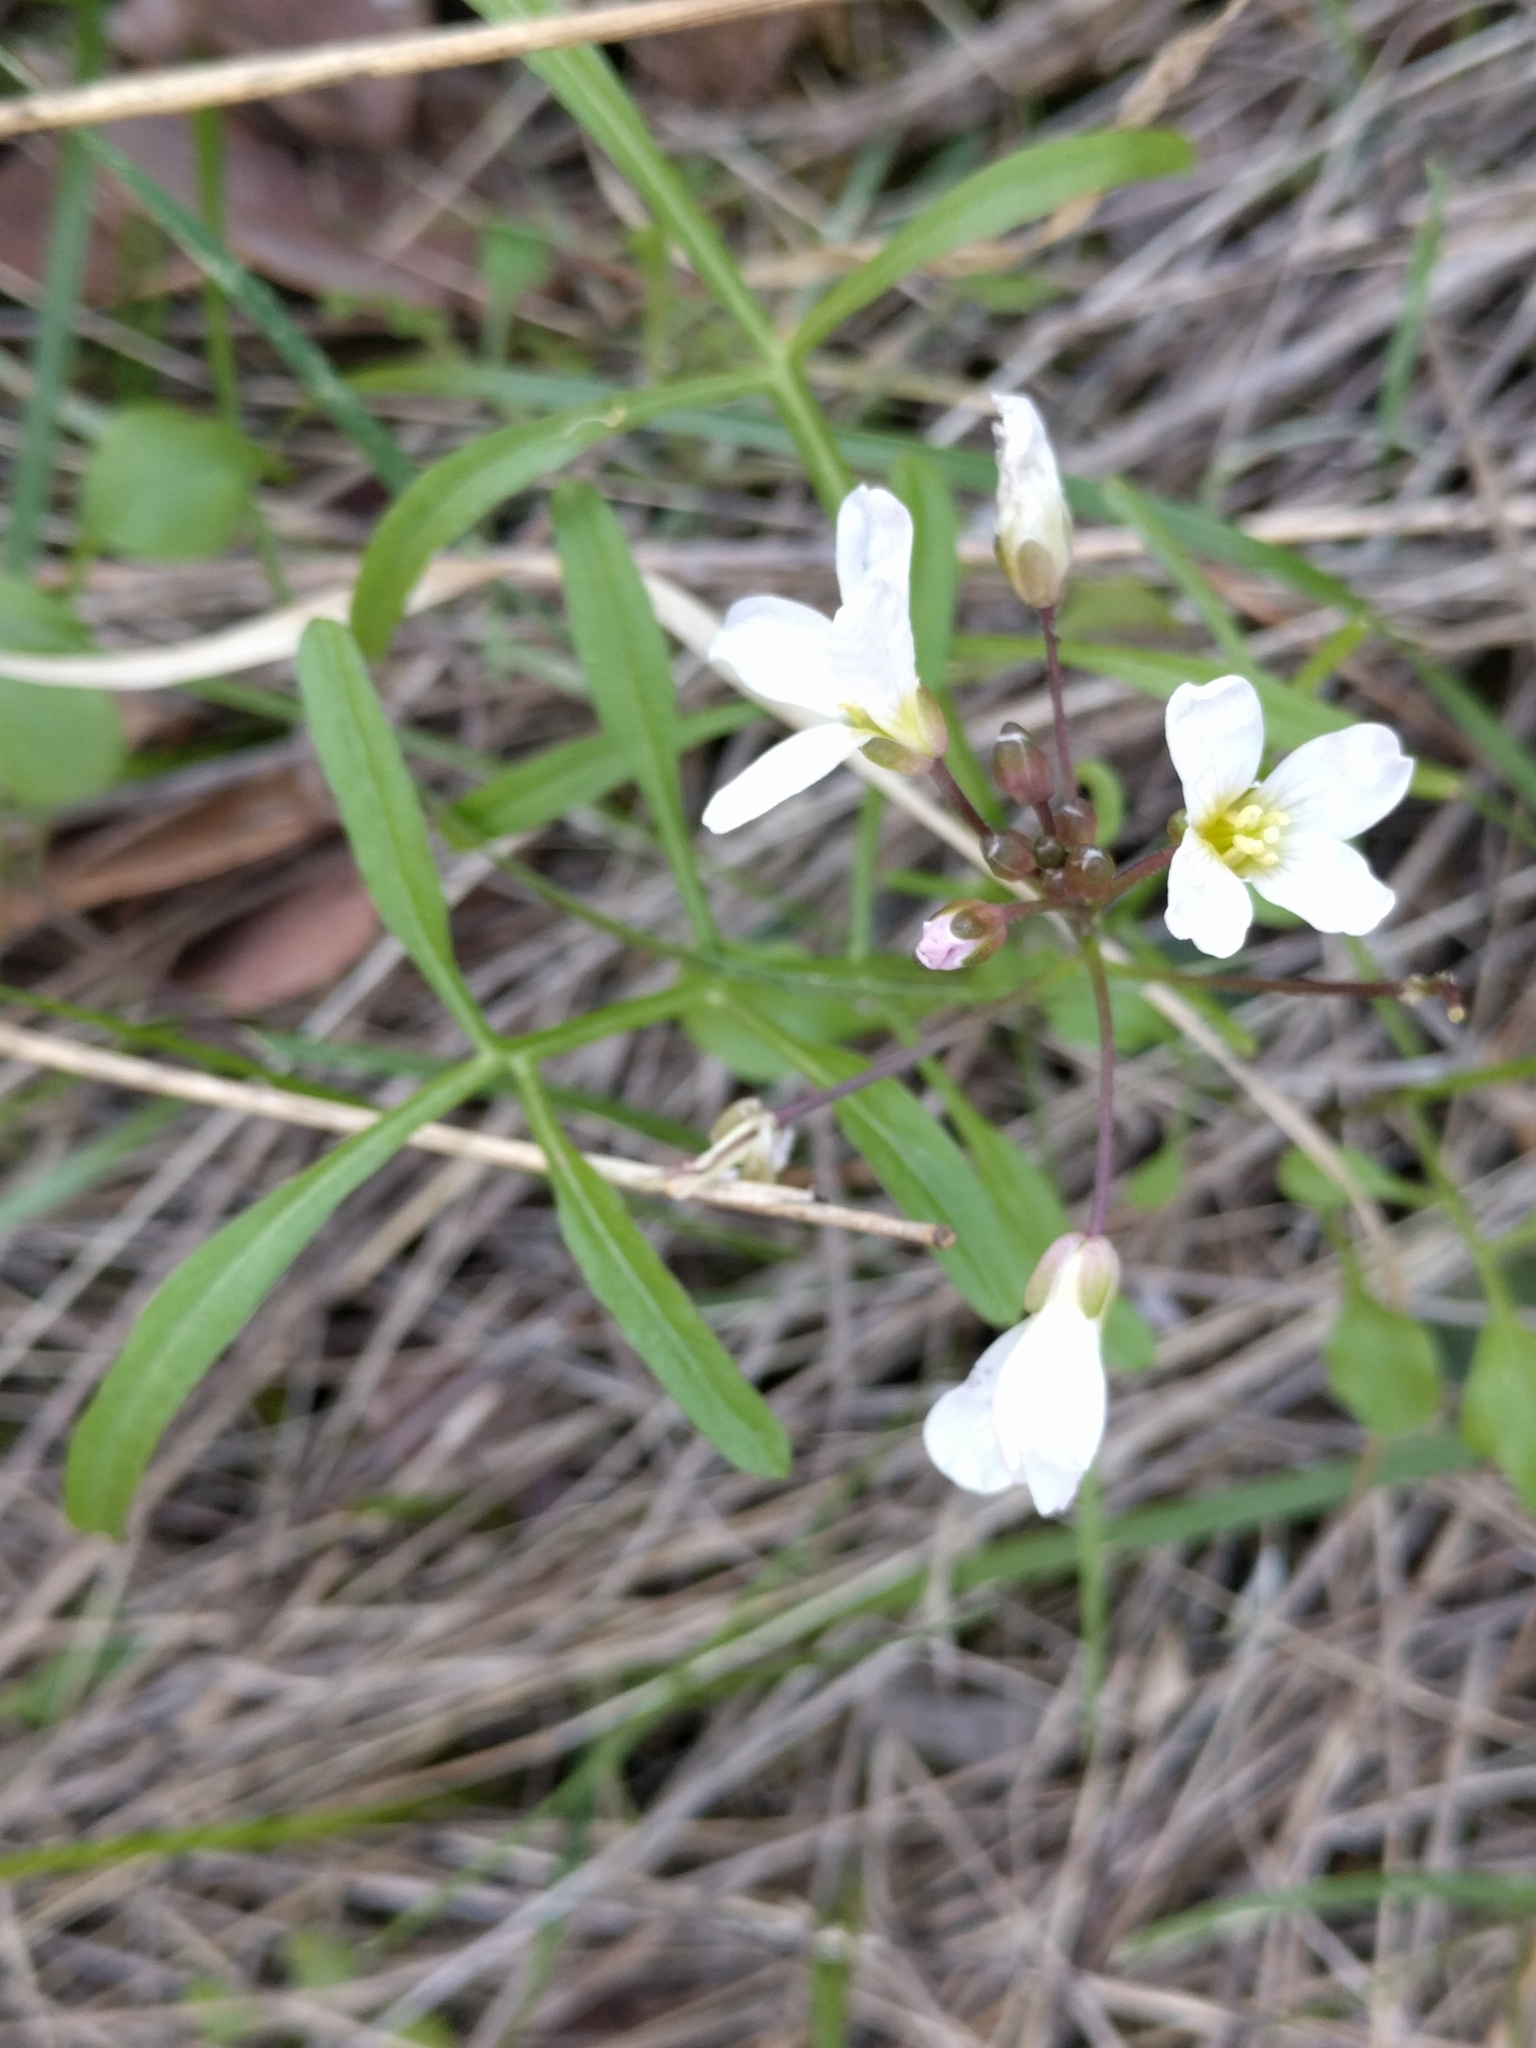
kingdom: Plantae
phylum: Tracheophyta
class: Magnoliopsida
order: Brassicales
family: Brassicaceae
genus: Cardamine
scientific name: Cardamine californica
